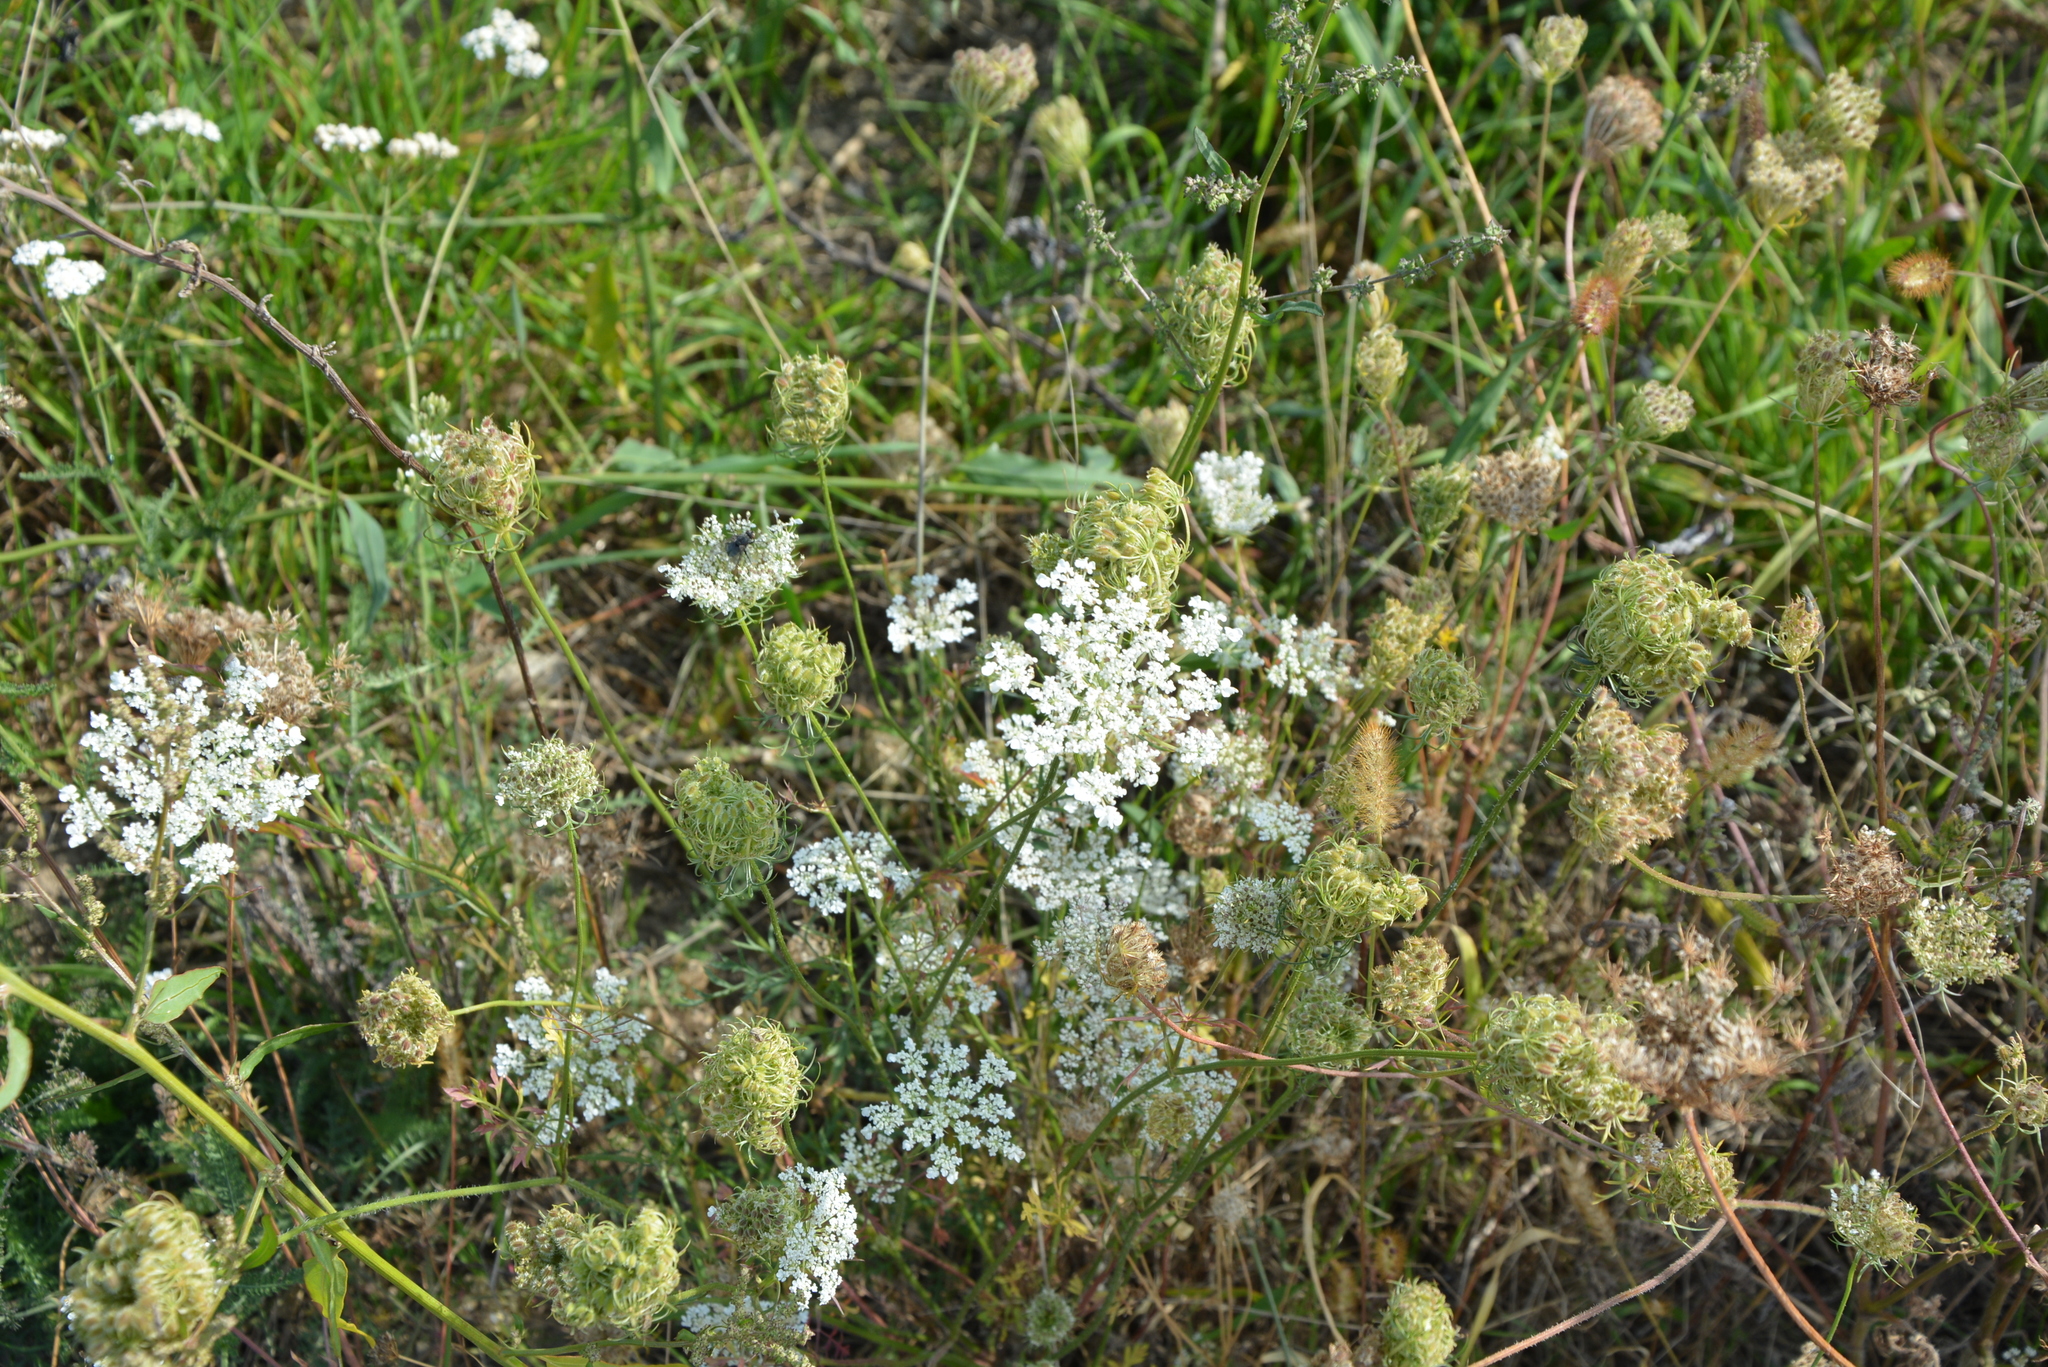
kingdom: Plantae
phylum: Tracheophyta
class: Magnoliopsida
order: Apiales
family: Apiaceae
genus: Daucus
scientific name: Daucus carota
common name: Wild carrot
